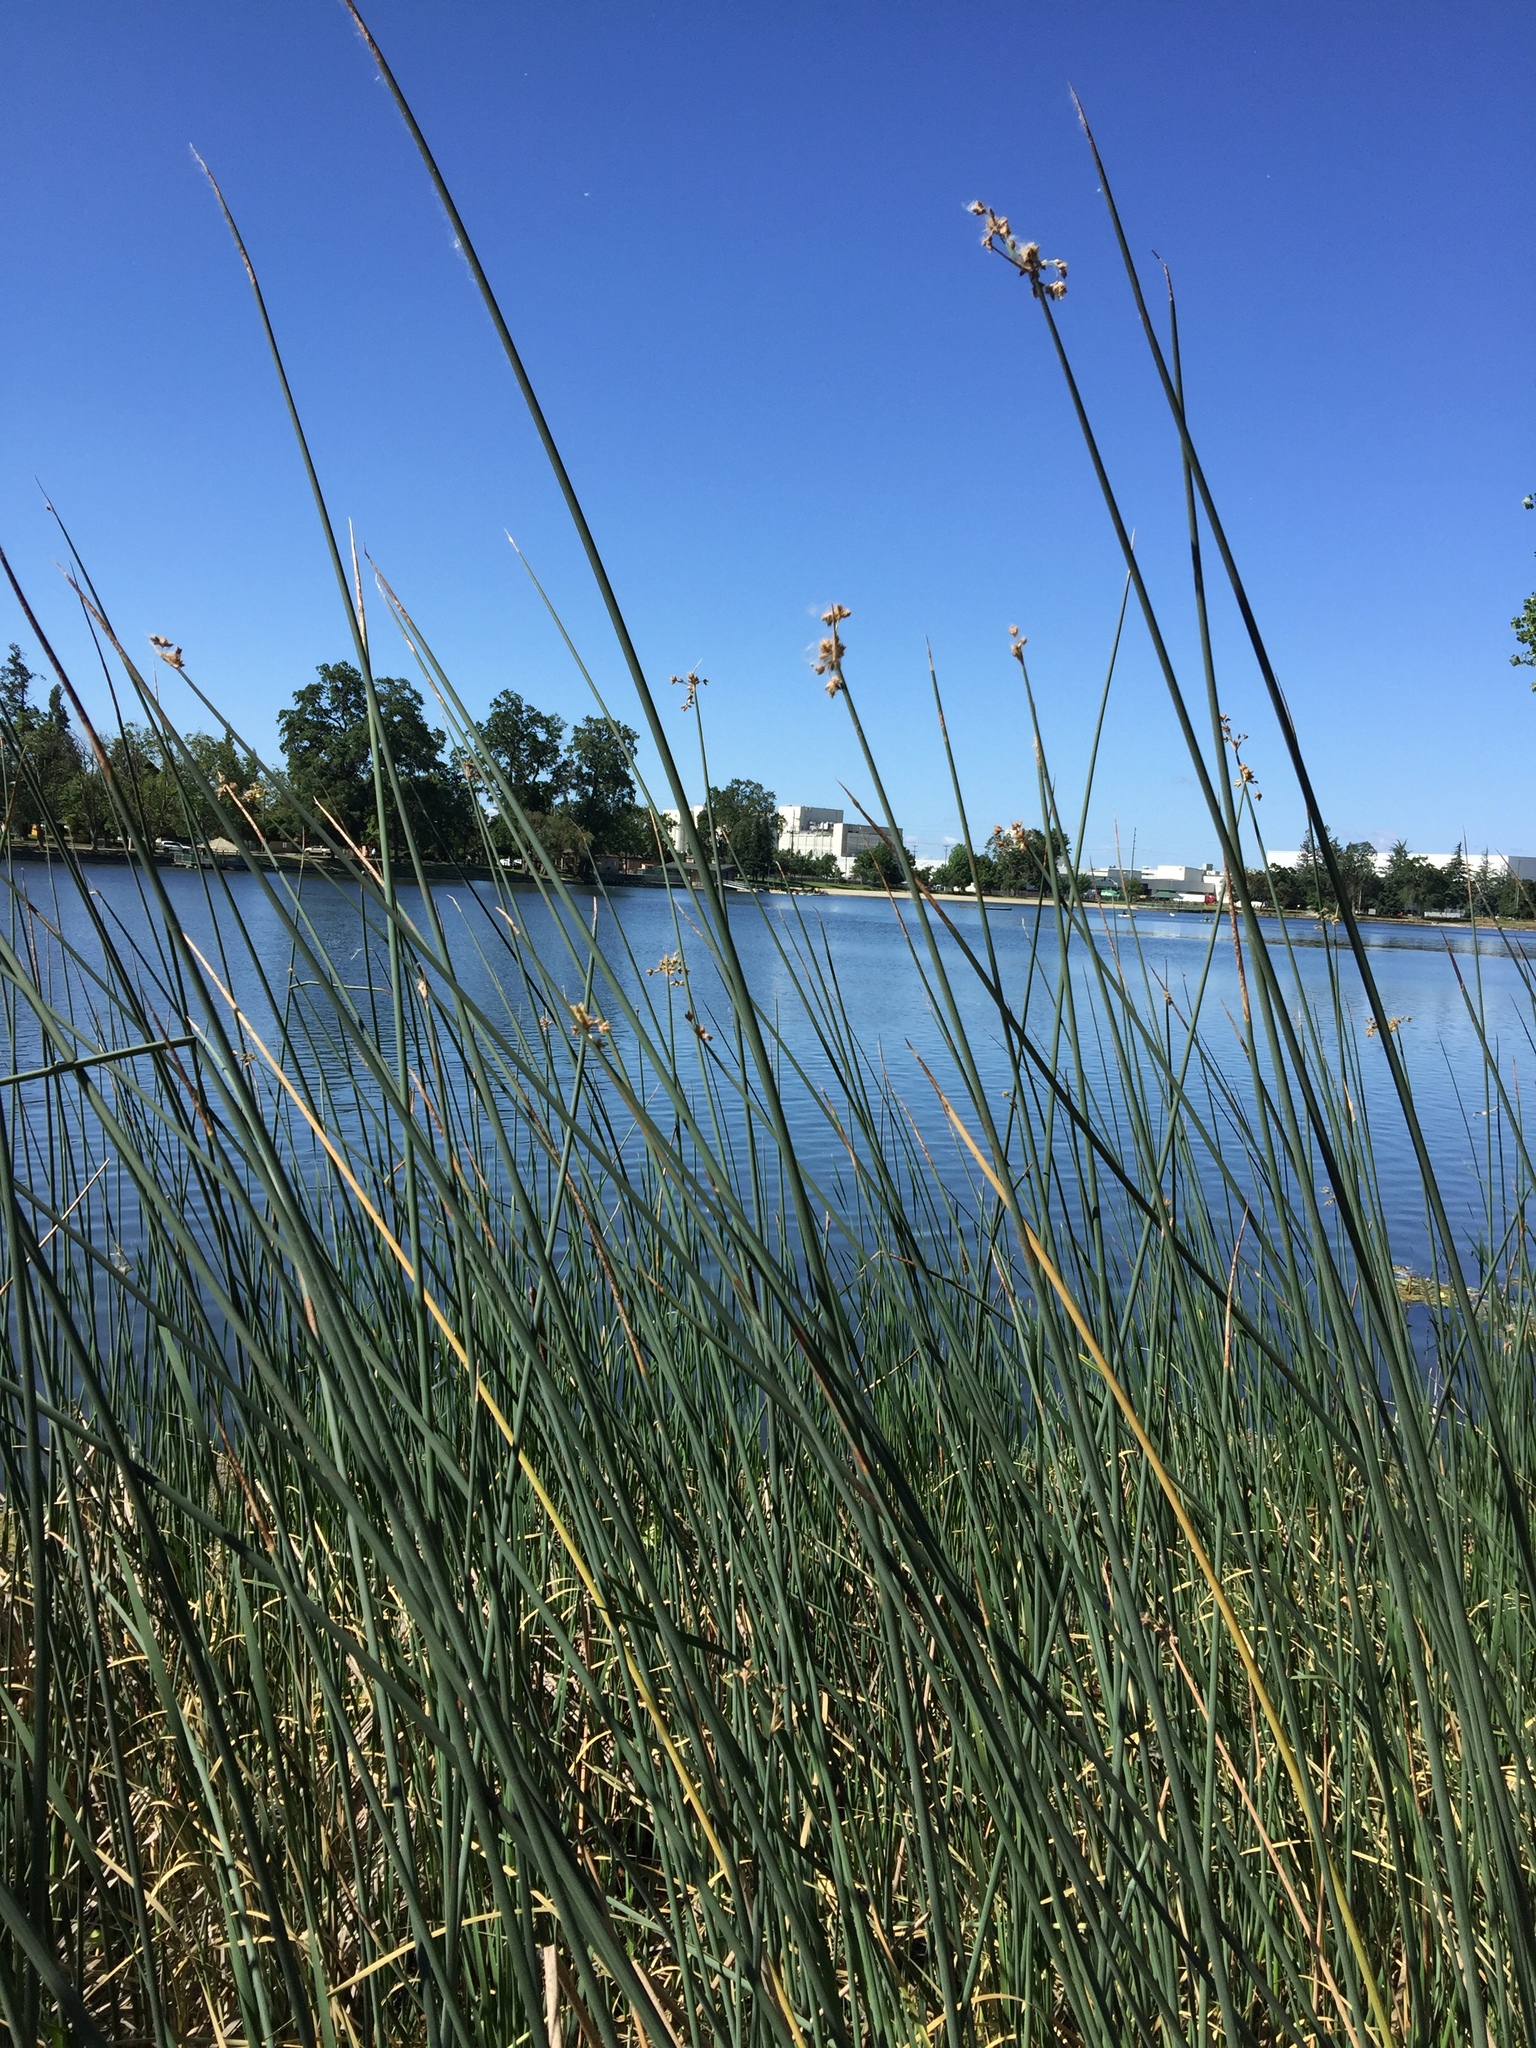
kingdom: Plantae
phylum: Tracheophyta
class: Liliopsida
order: Poales
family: Cyperaceae
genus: Schoenoplectus
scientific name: Schoenoplectus acutus
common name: Hardstem bulrush
